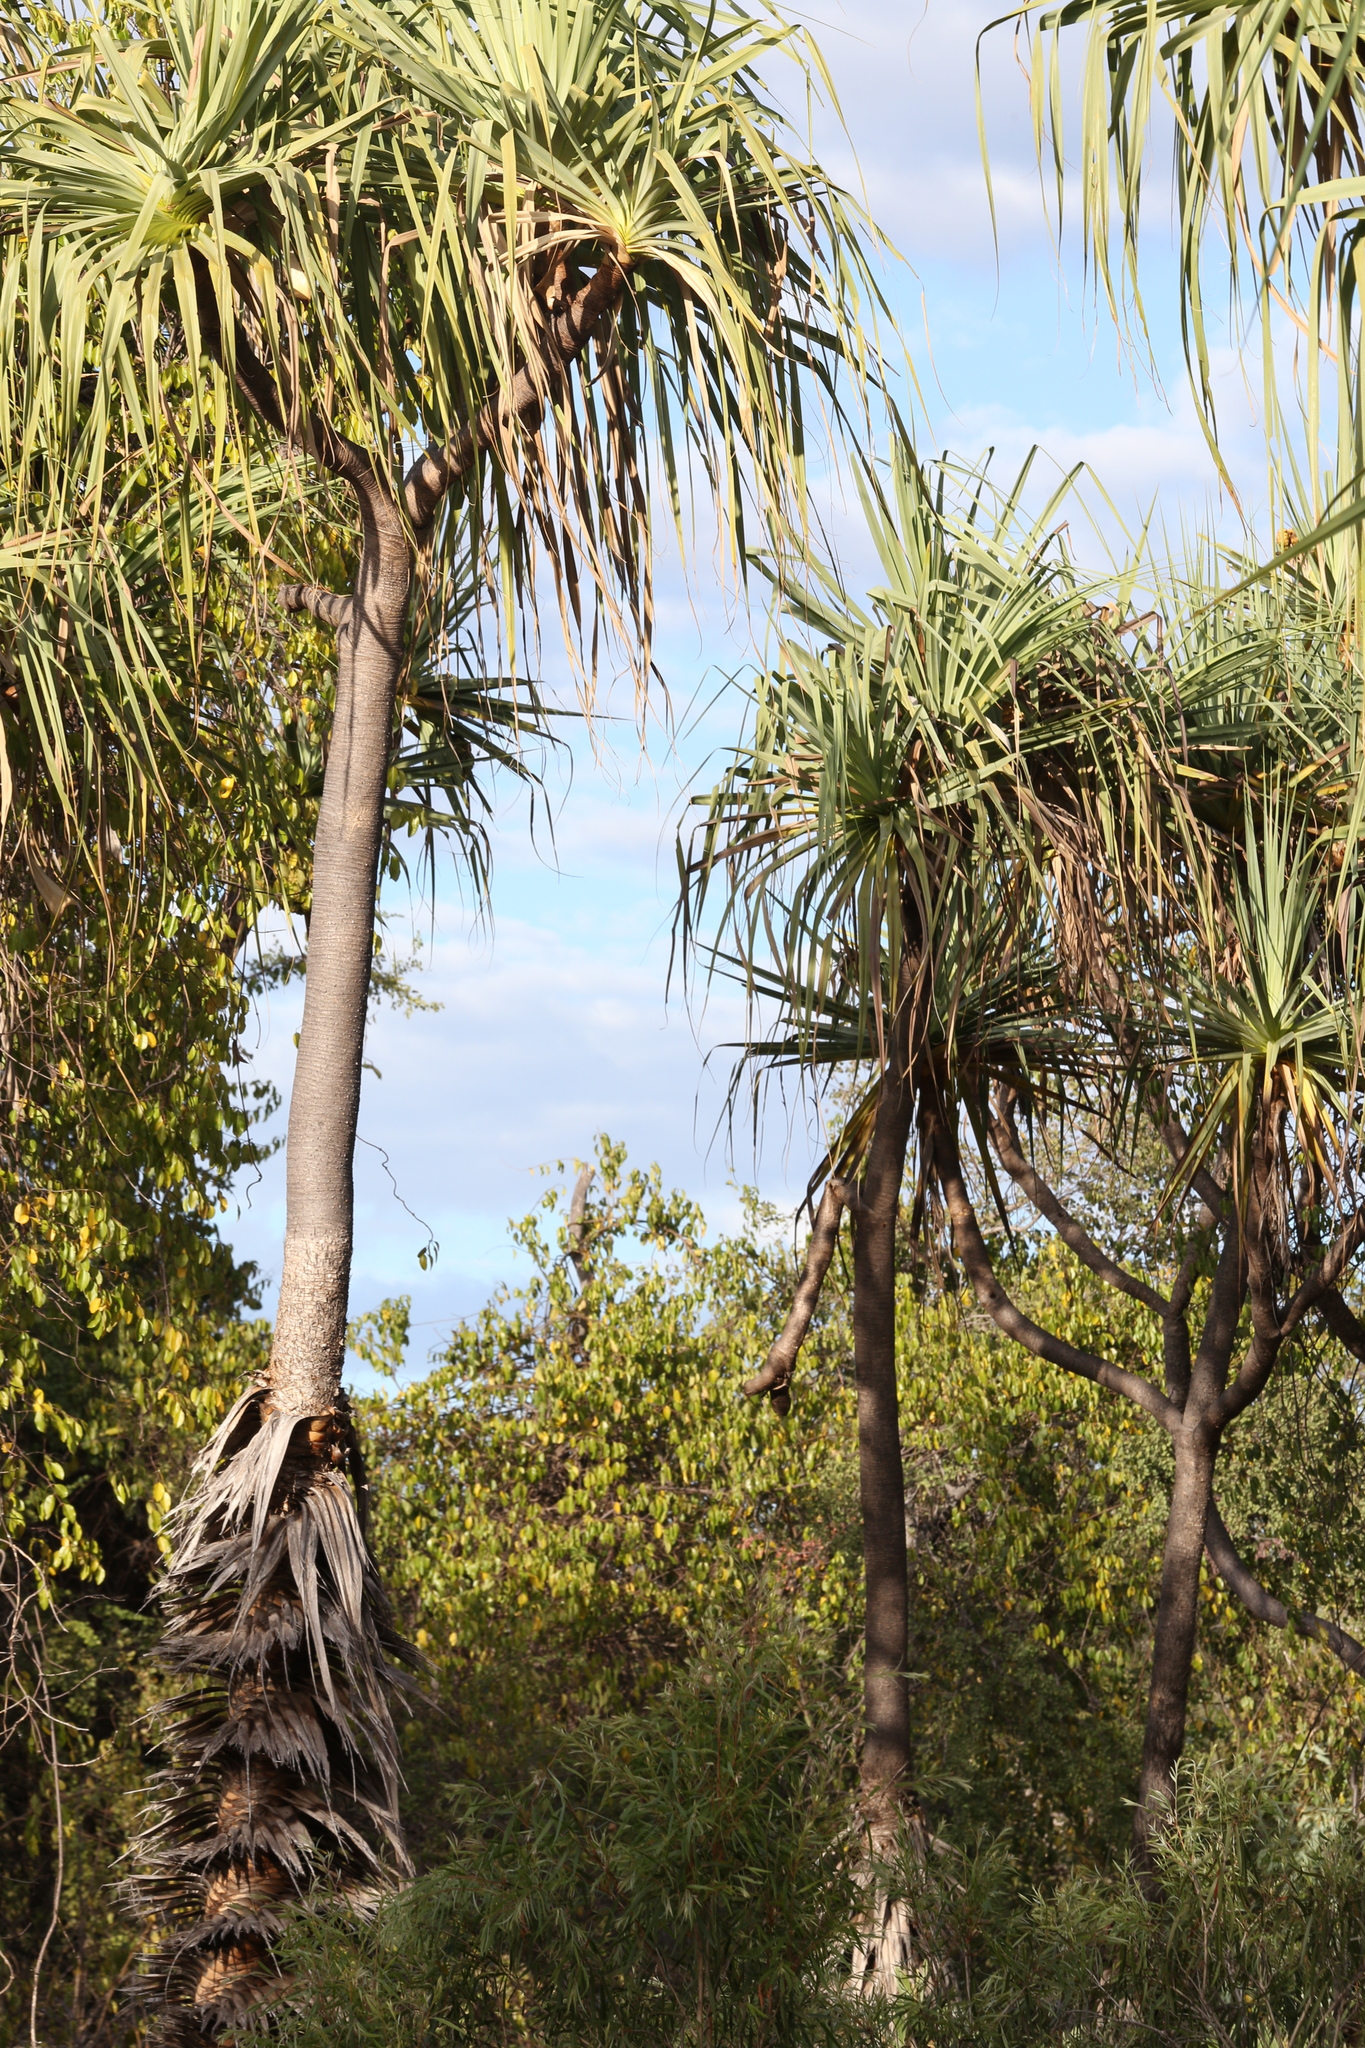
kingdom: Plantae
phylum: Tracheophyta
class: Liliopsida
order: Pandanales
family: Pandanaceae
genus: Pandanus
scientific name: Pandanus tectorius
